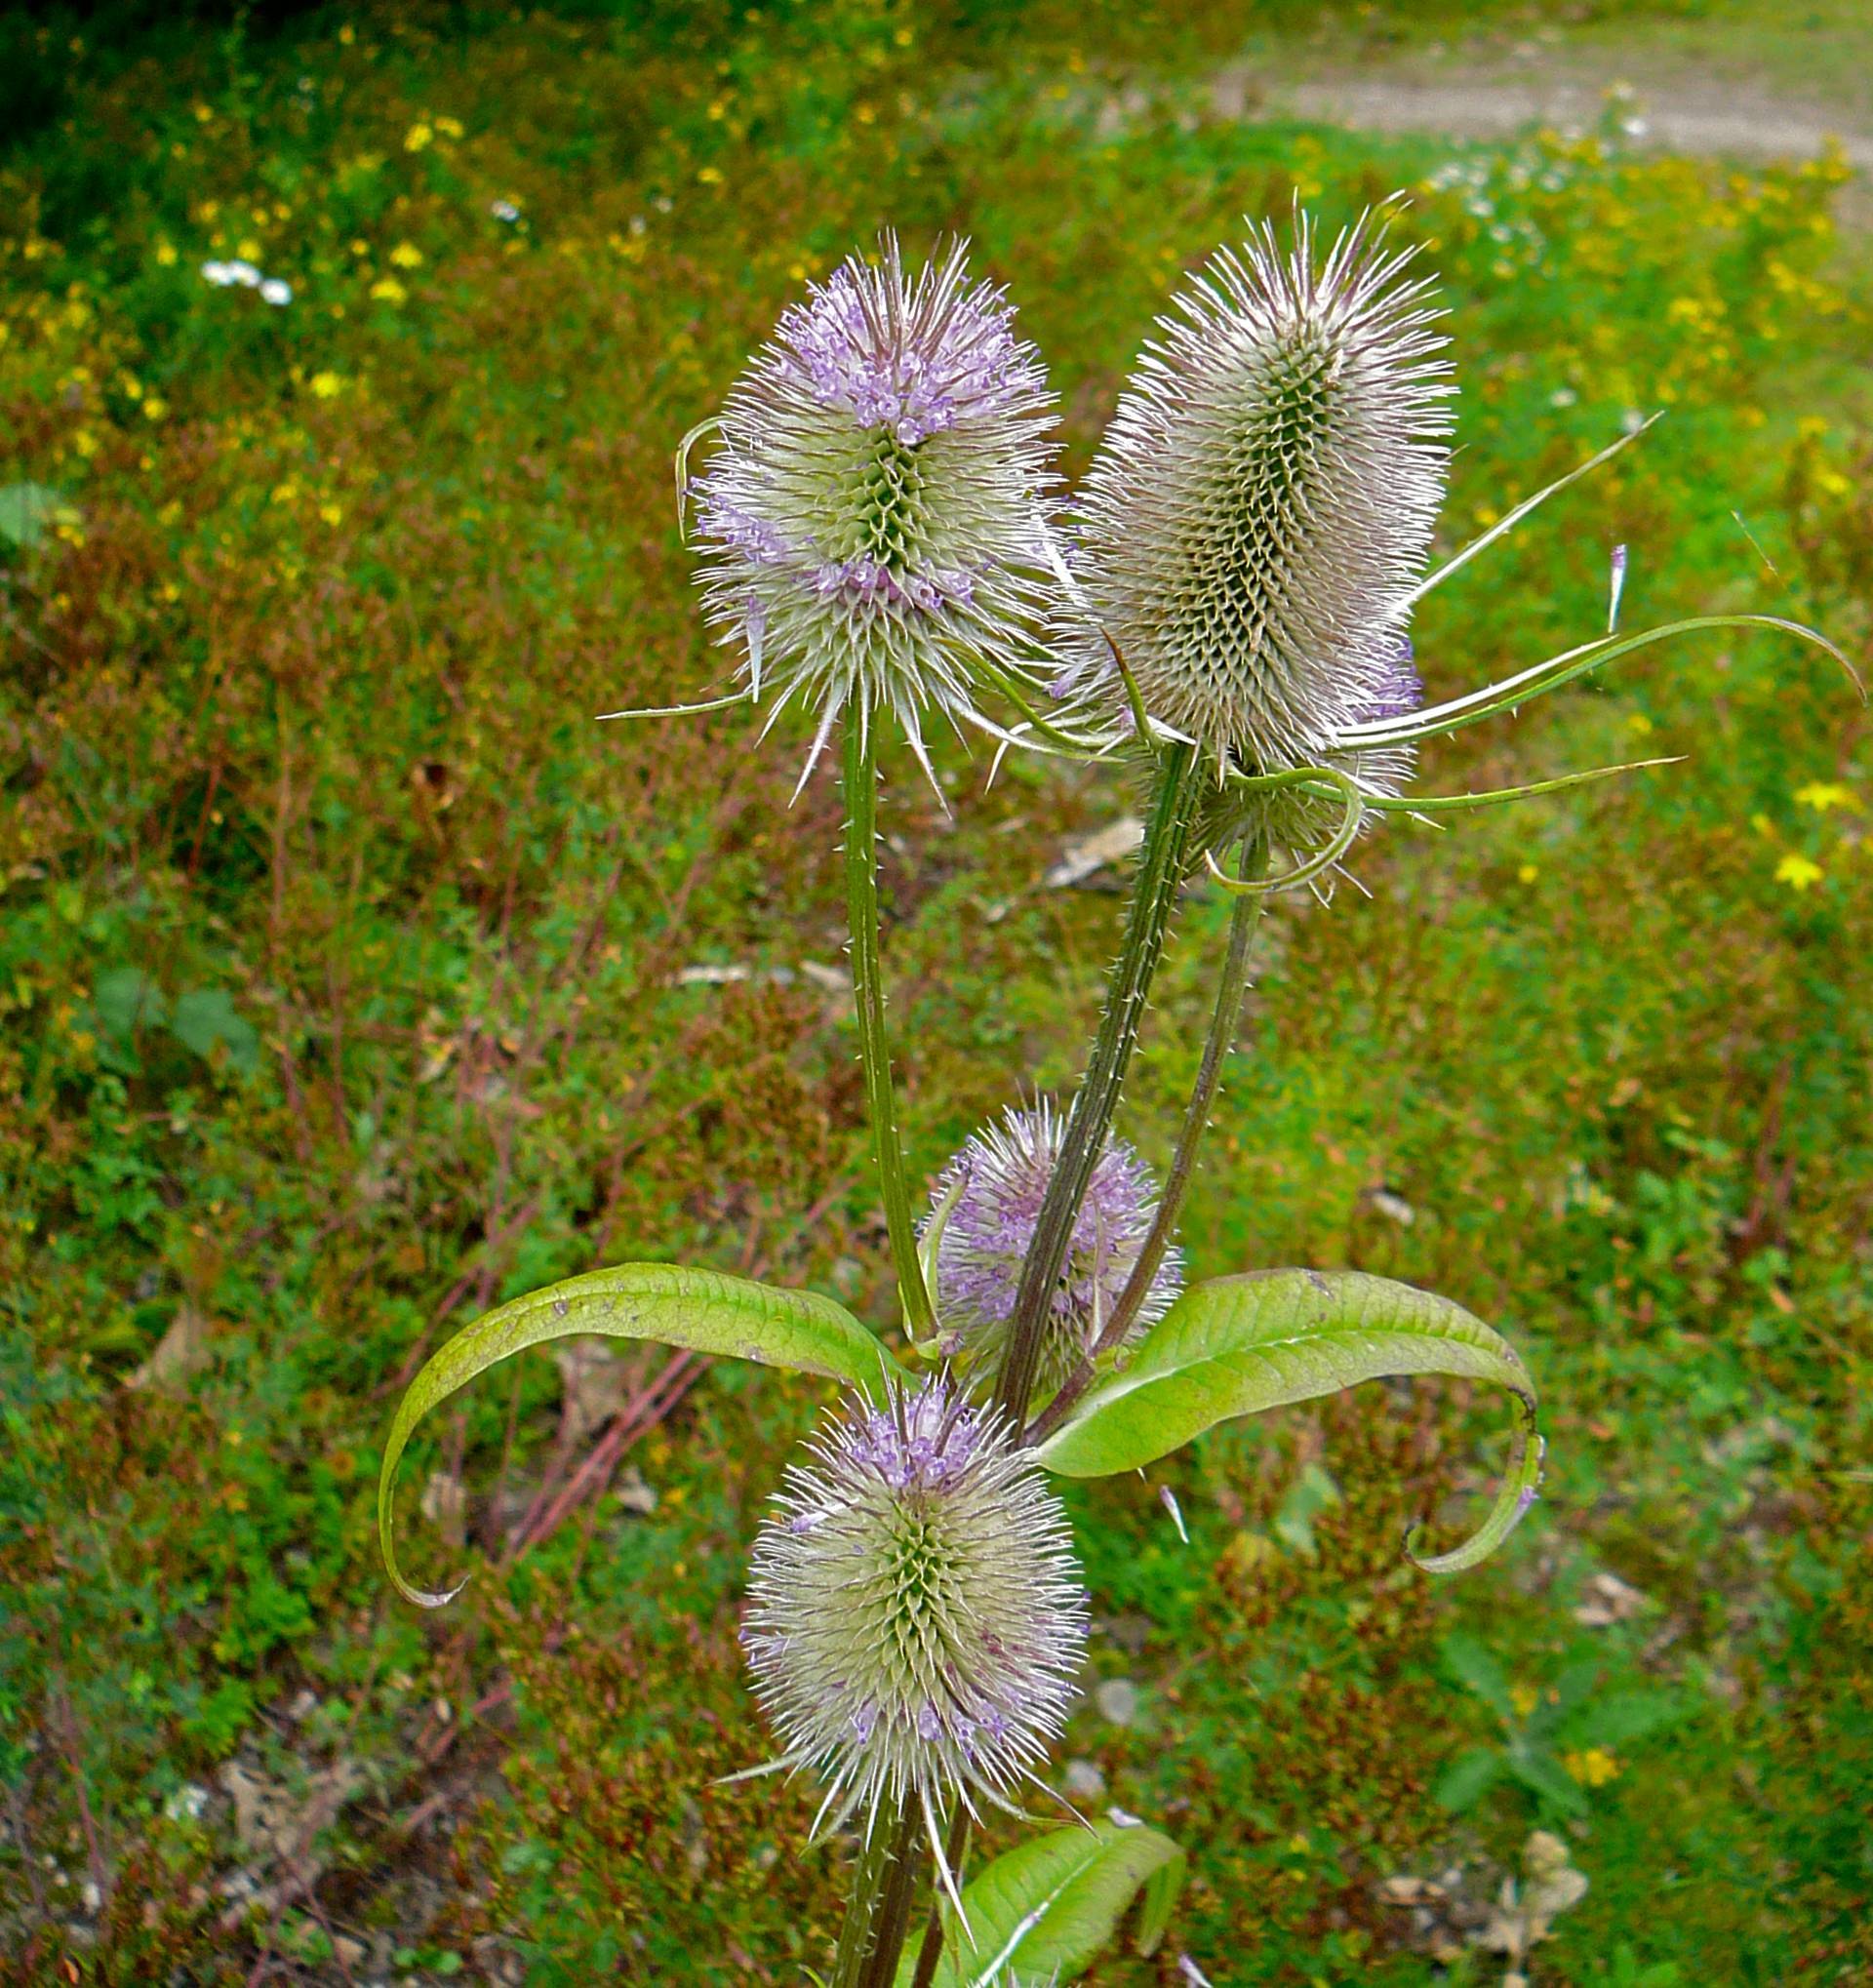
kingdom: Plantae
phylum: Tracheophyta
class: Magnoliopsida
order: Dipsacales
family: Caprifoliaceae
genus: Dipsacus
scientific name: Dipsacus fullonum
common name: Teasel
